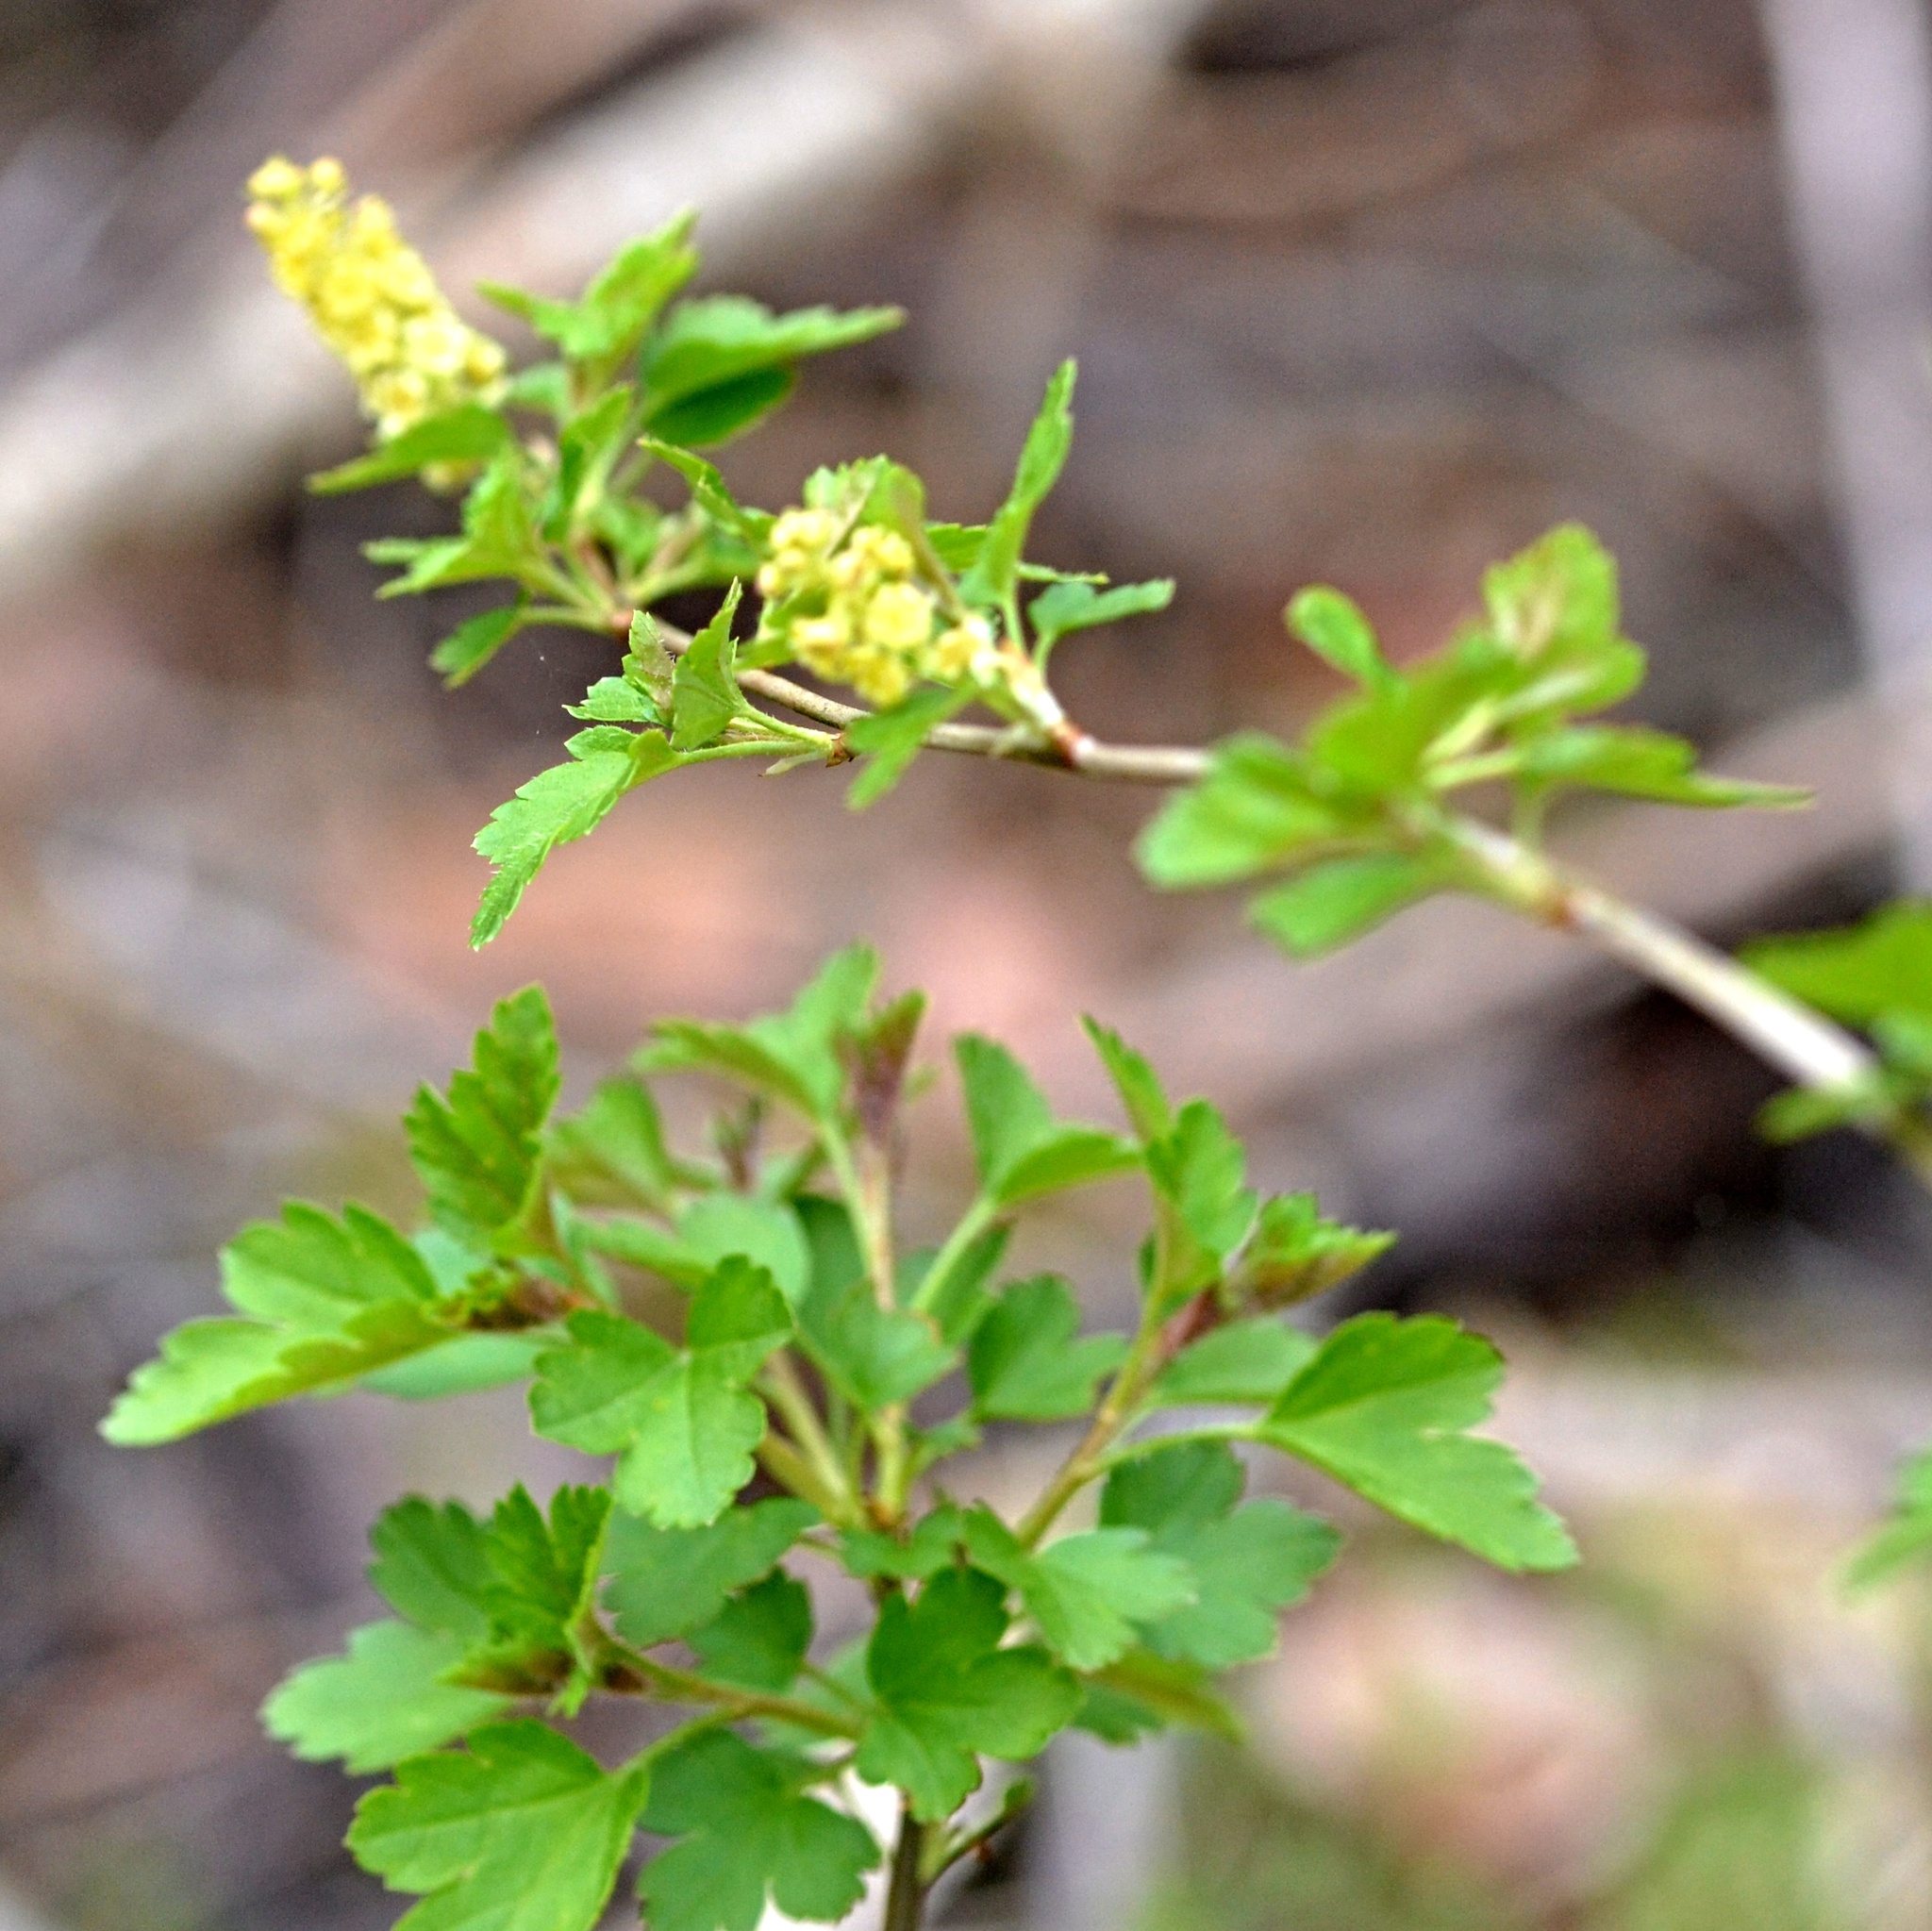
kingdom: Plantae
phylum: Tracheophyta
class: Magnoliopsida
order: Saxifragales
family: Grossulariaceae
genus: Ribes
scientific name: Ribes alpinum
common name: Alpine currant
